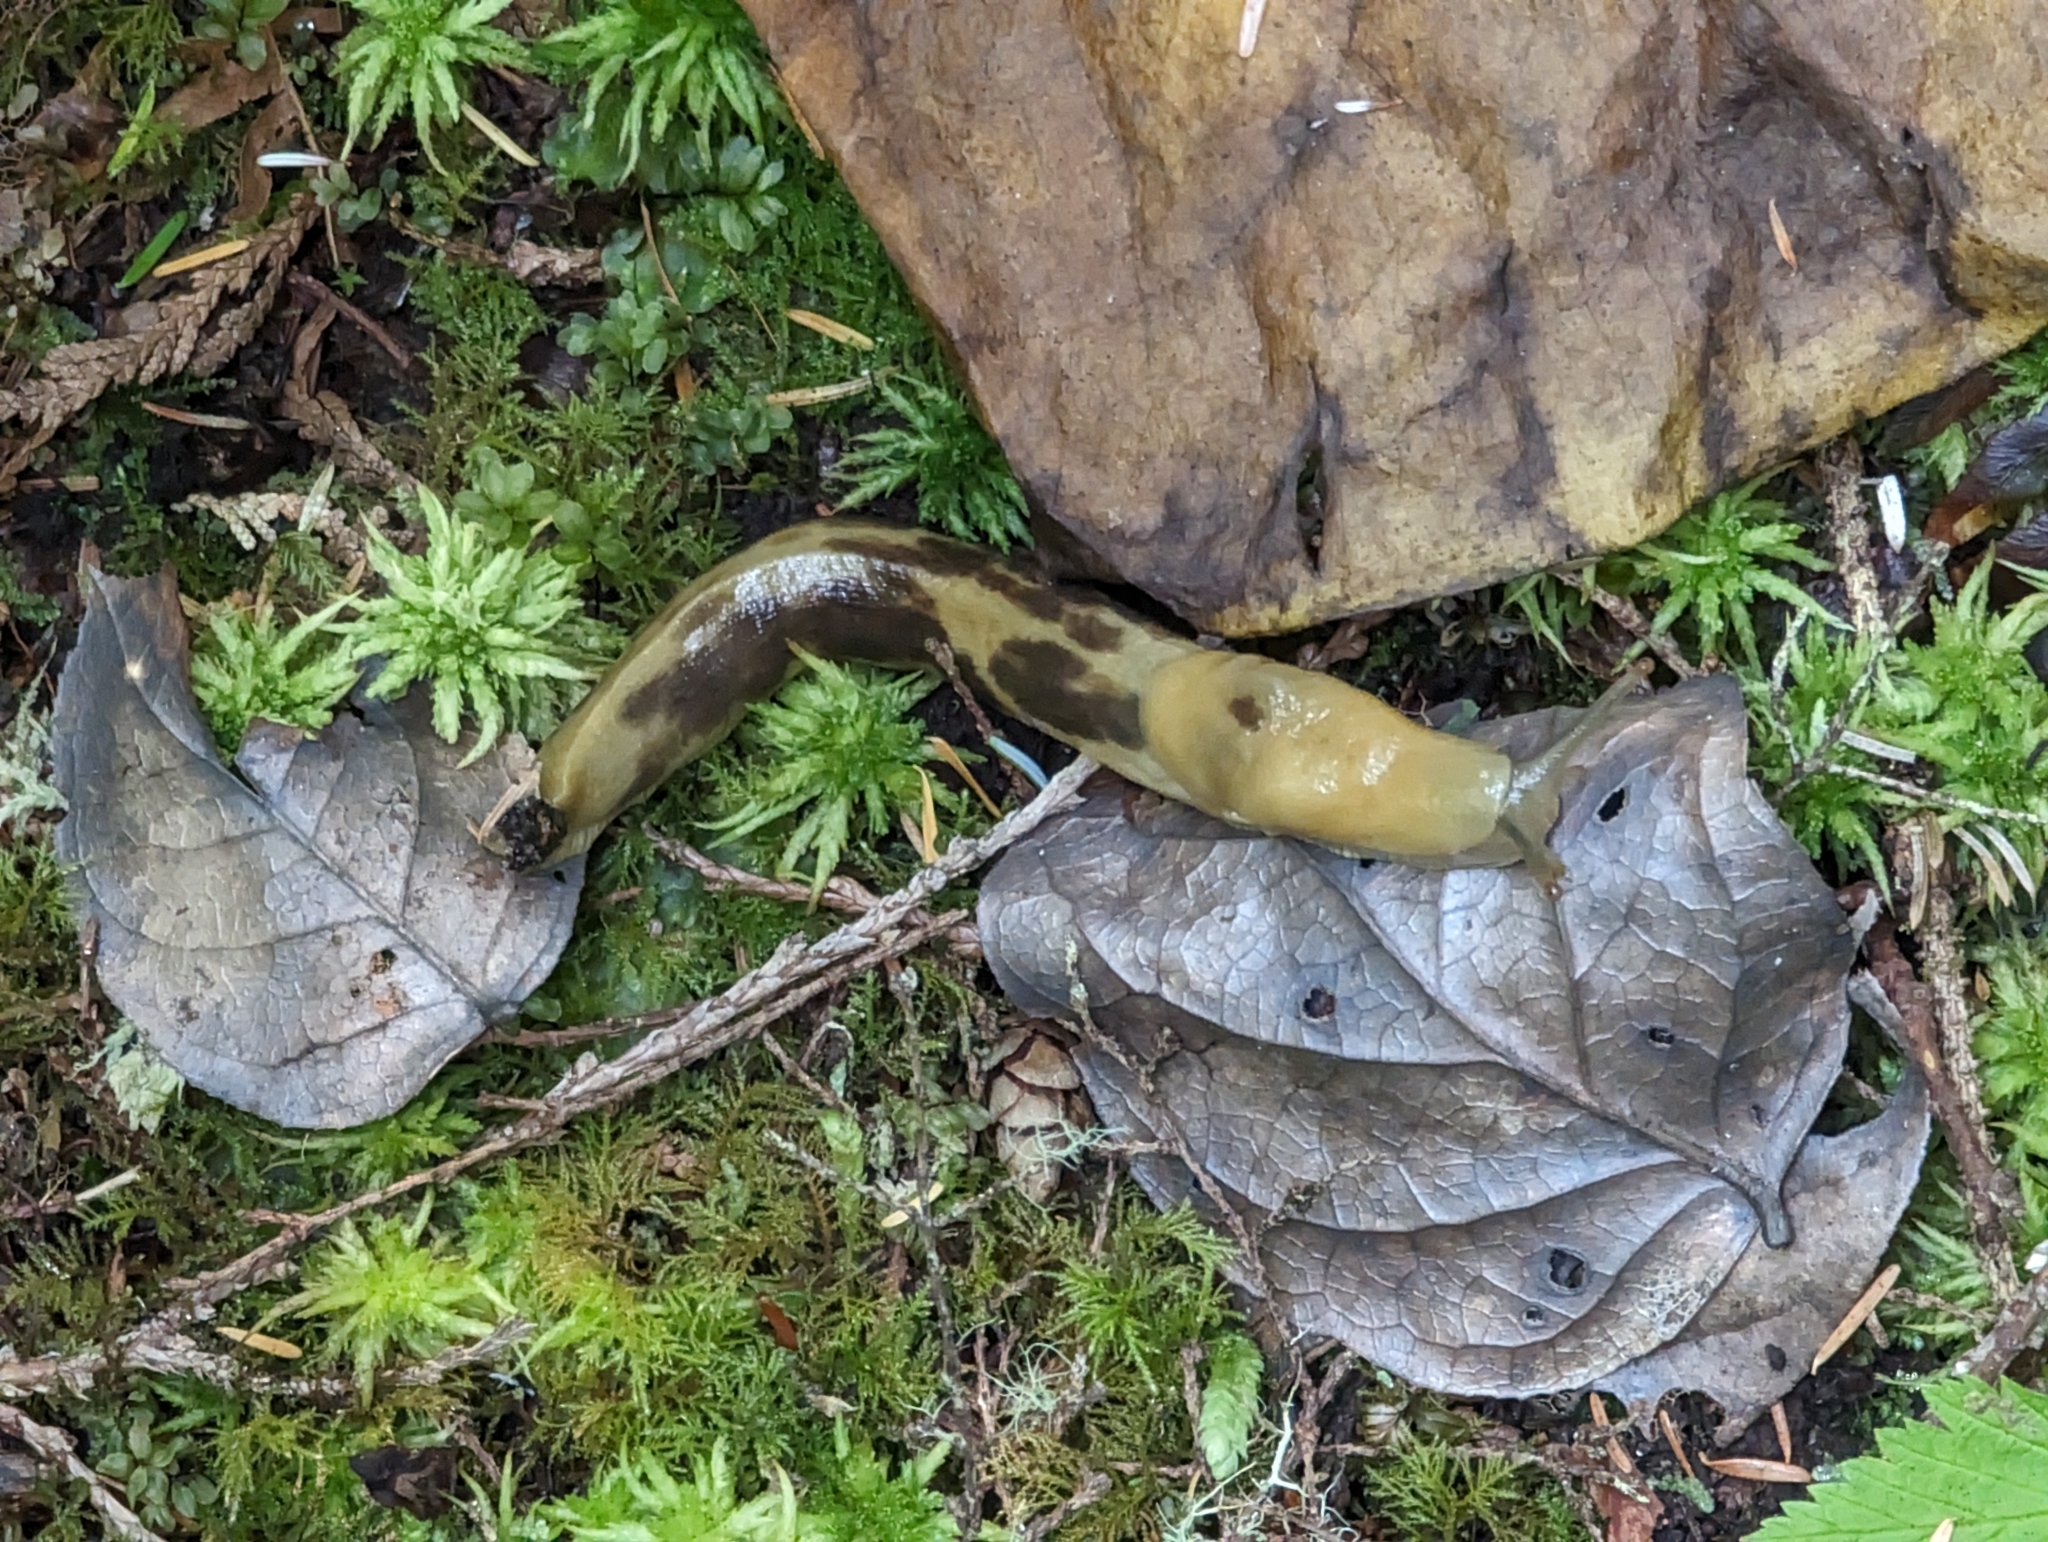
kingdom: Animalia
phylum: Mollusca
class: Gastropoda
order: Stylommatophora
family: Ariolimacidae
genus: Ariolimax
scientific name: Ariolimax columbianus
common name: Pacific banana slug
